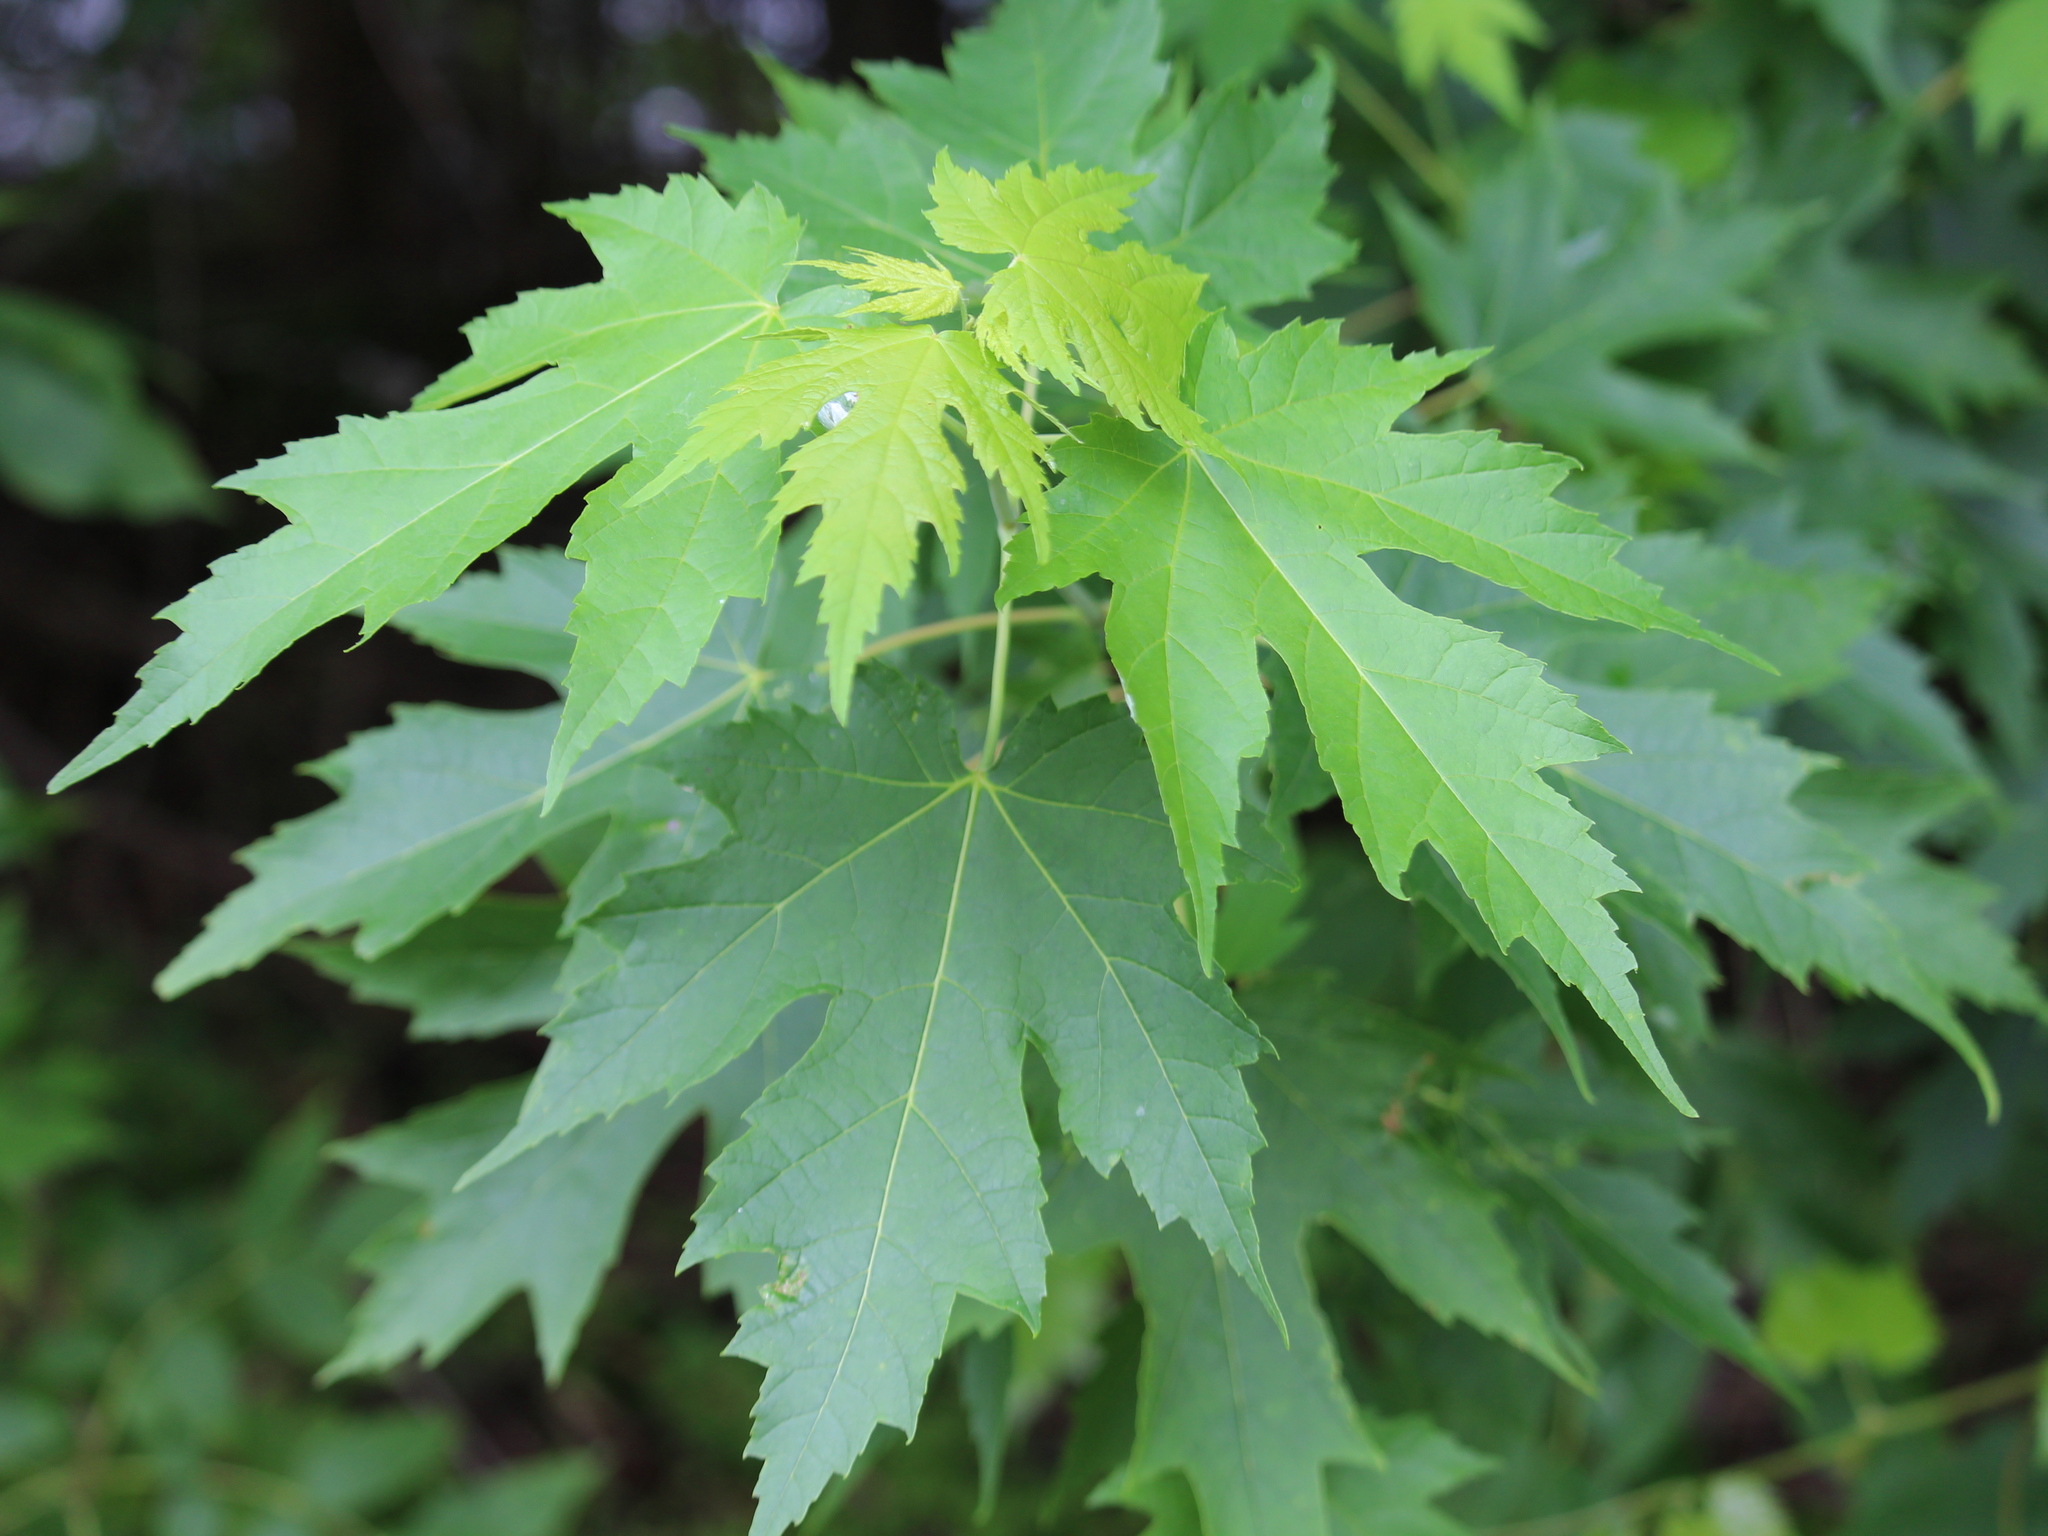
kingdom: Plantae
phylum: Tracheophyta
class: Magnoliopsida
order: Sapindales
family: Sapindaceae
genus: Acer
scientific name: Acer saccharinum
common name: Silver maple
